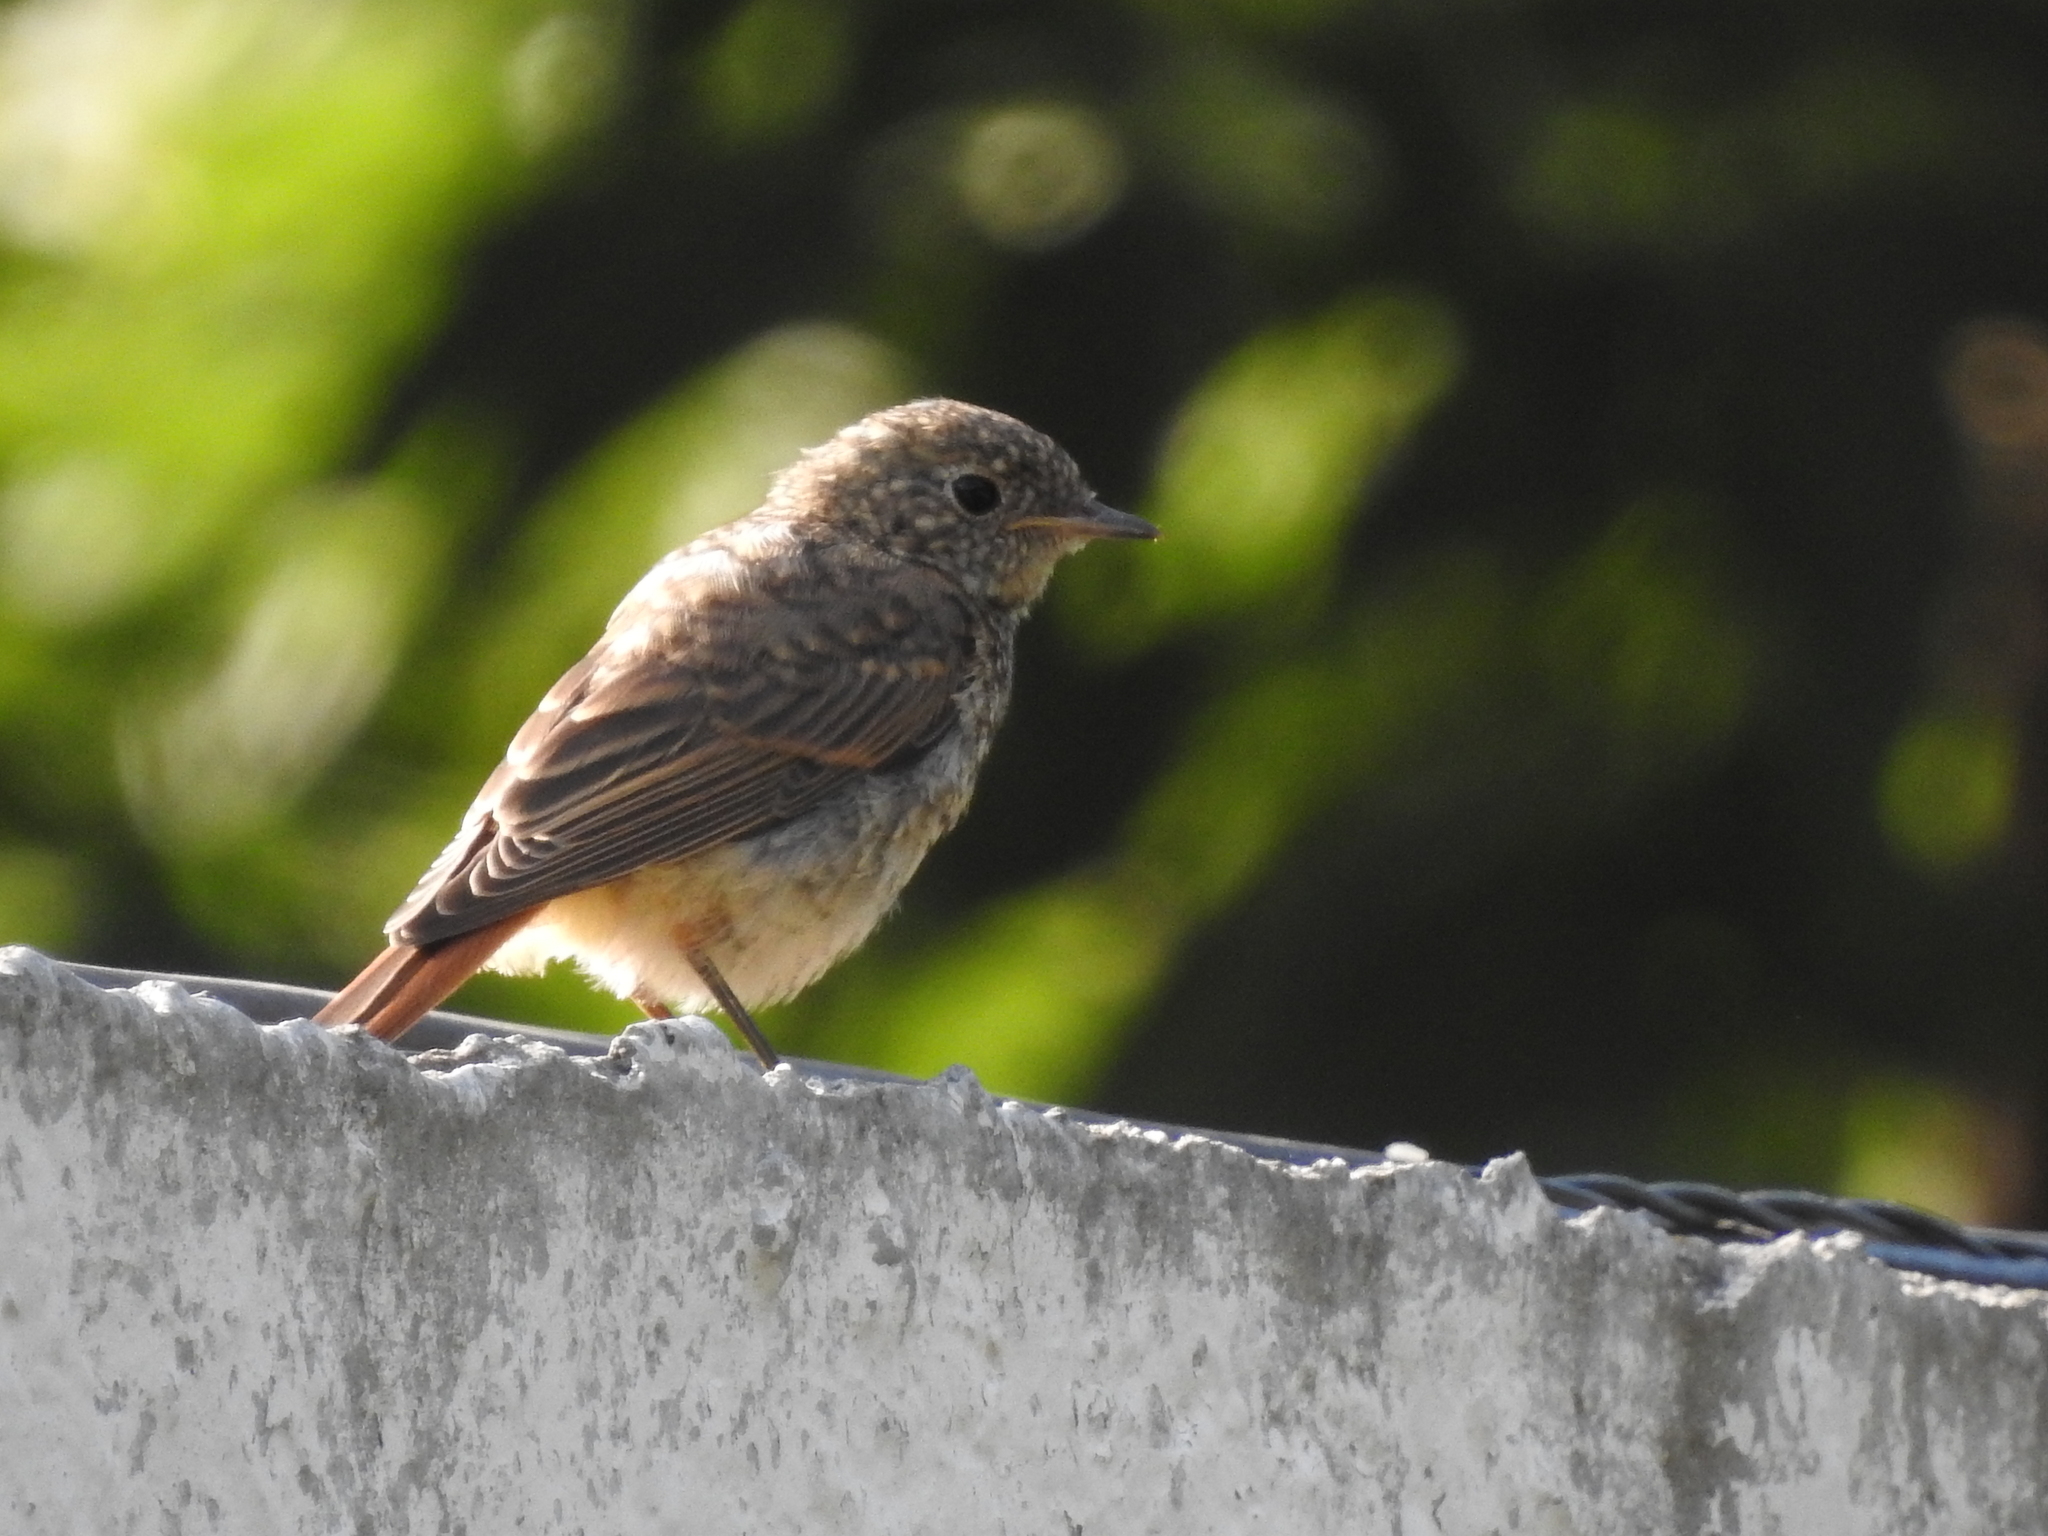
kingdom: Animalia
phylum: Chordata
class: Aves
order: Passeriformes
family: Muscicapidae
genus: Phoenicurus
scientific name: Phoenicurus phoenicurus
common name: Common redstart
